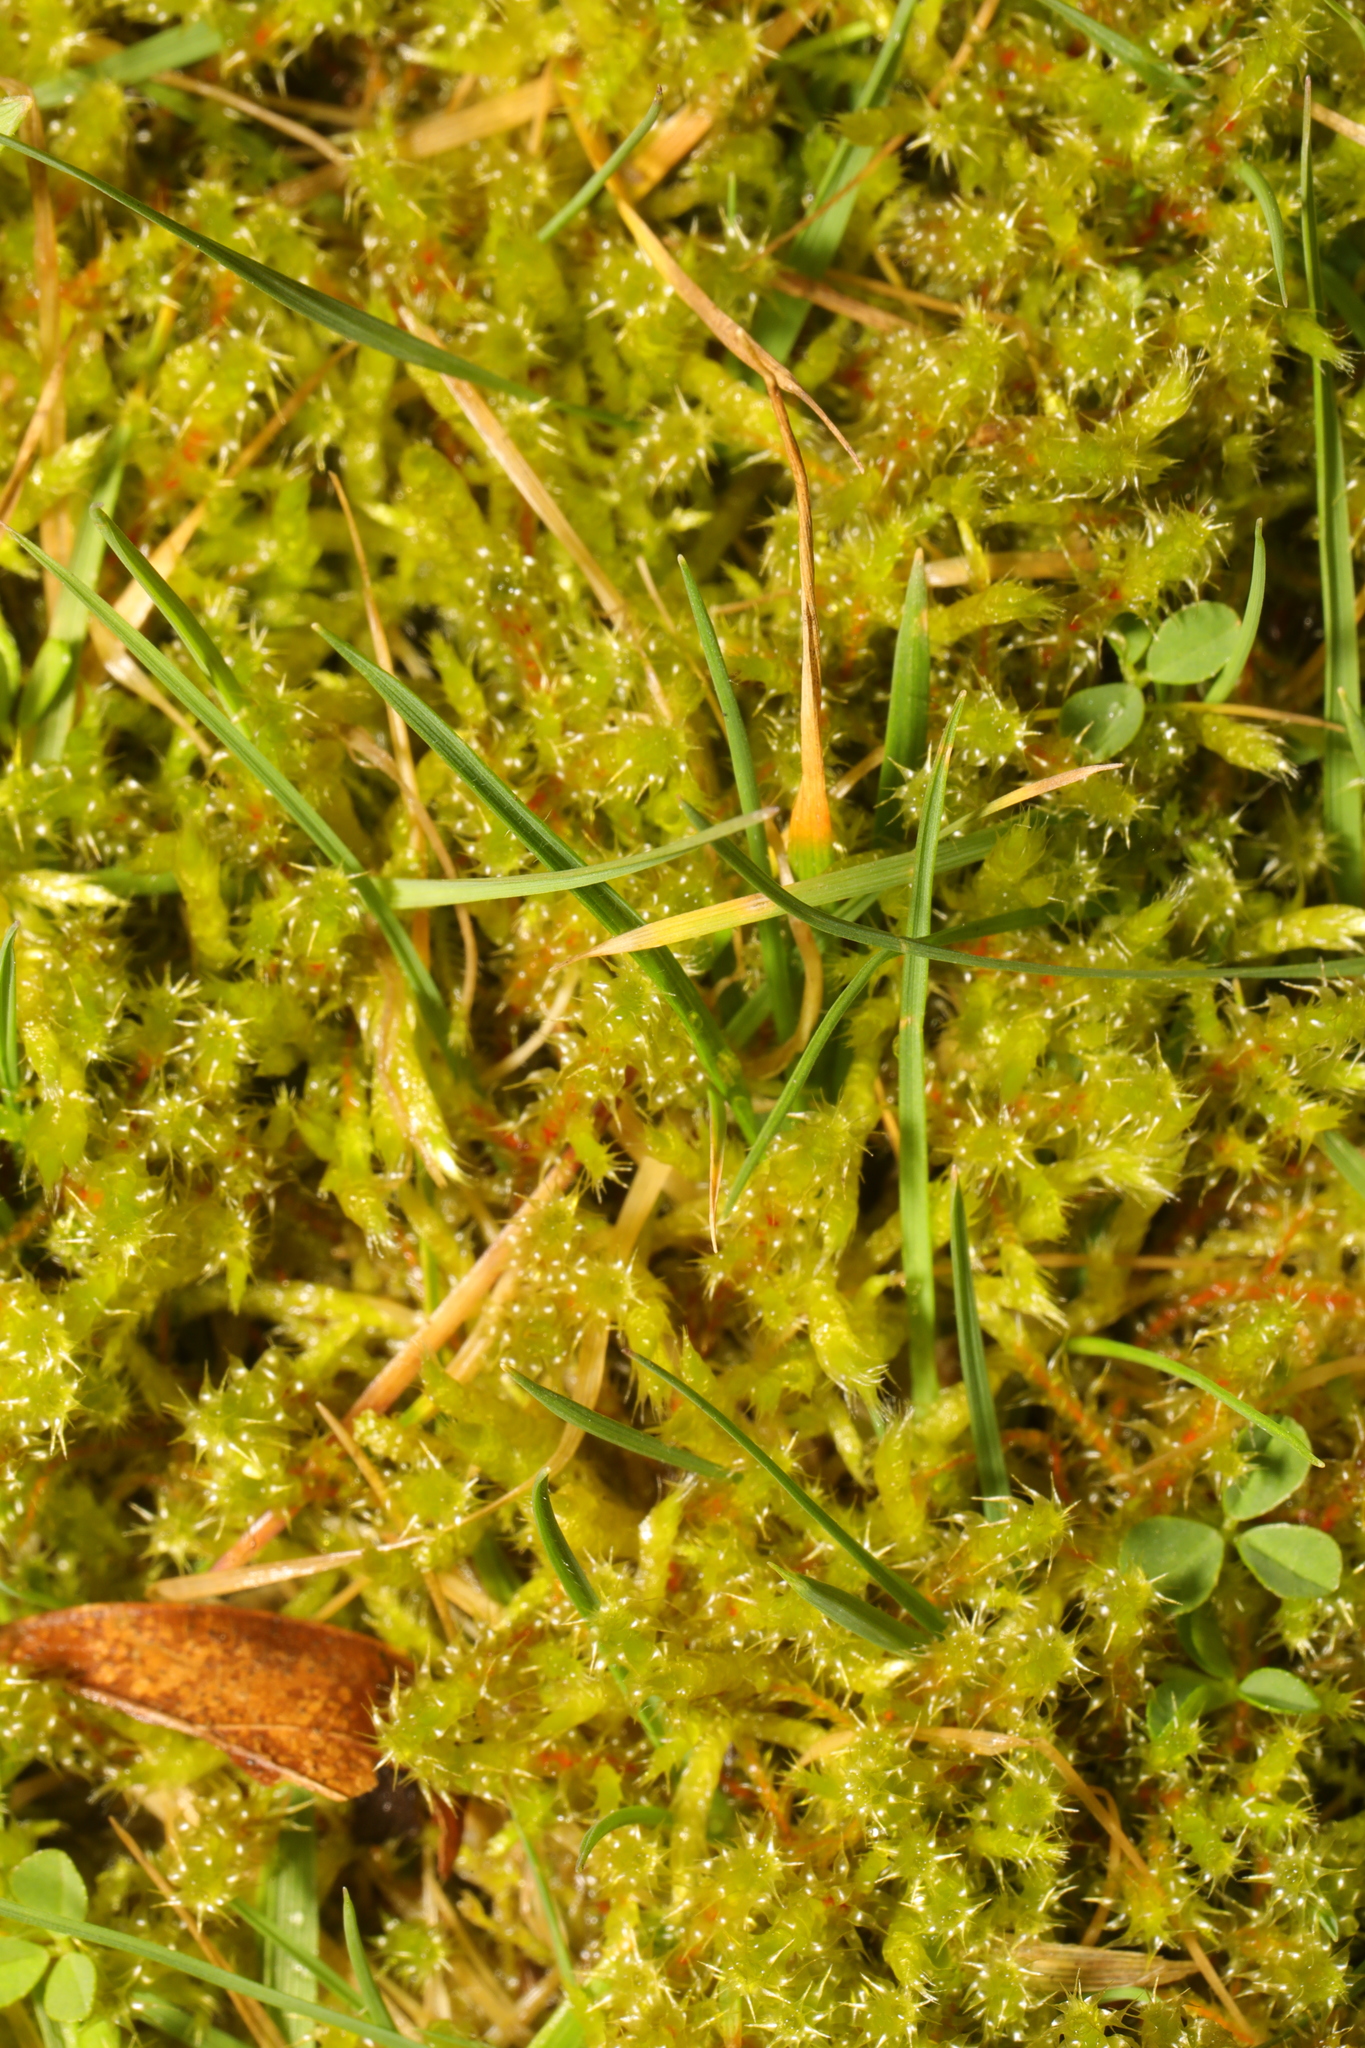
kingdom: Plantae
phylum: Bryophyta
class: Bryopsida
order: Hypnales
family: Hylocomiaceae
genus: Rhytidiadelphus
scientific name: Rhytidiadelphus squarrosus
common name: Springy turf-moss
